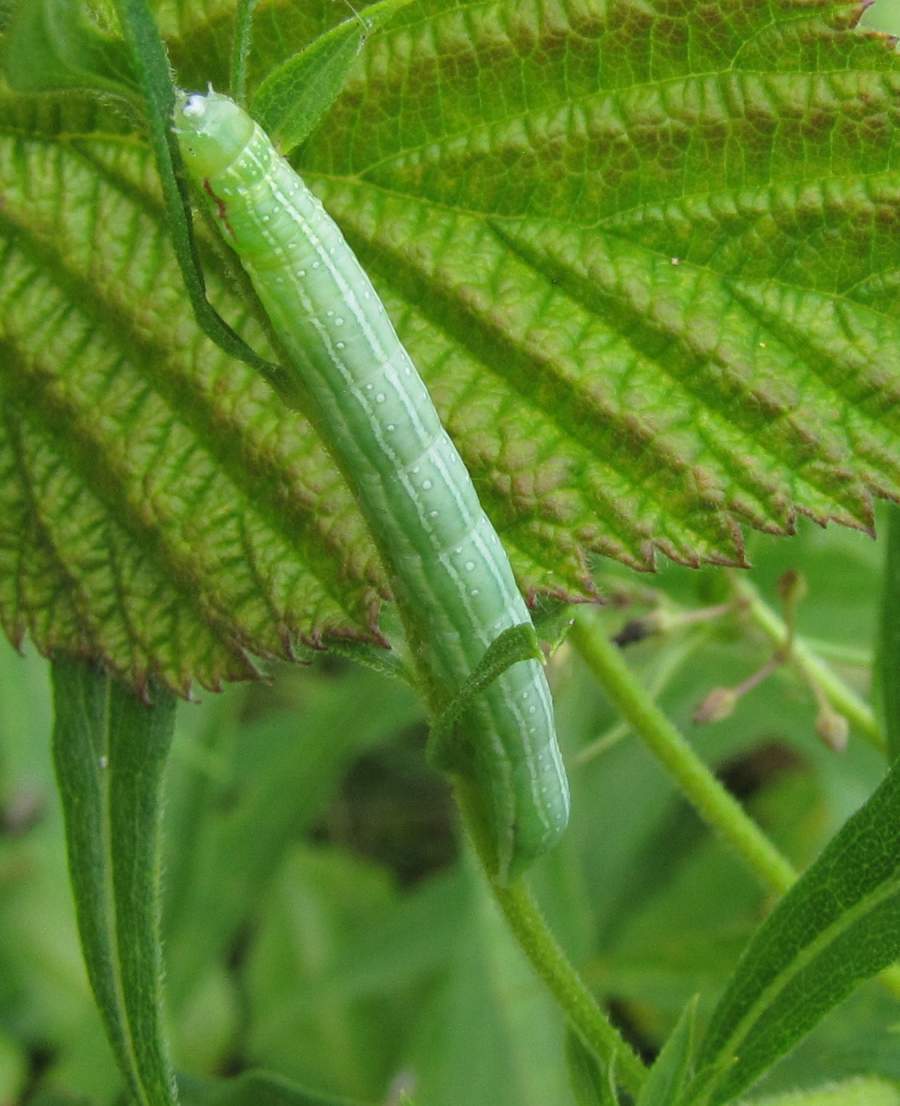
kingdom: Animalia
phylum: Arthropoda
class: Insecta
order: Lepidoptera
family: Noctuidae
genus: Leuconycta
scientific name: Leuconycta diphteroides
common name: Green leuconycta moth
